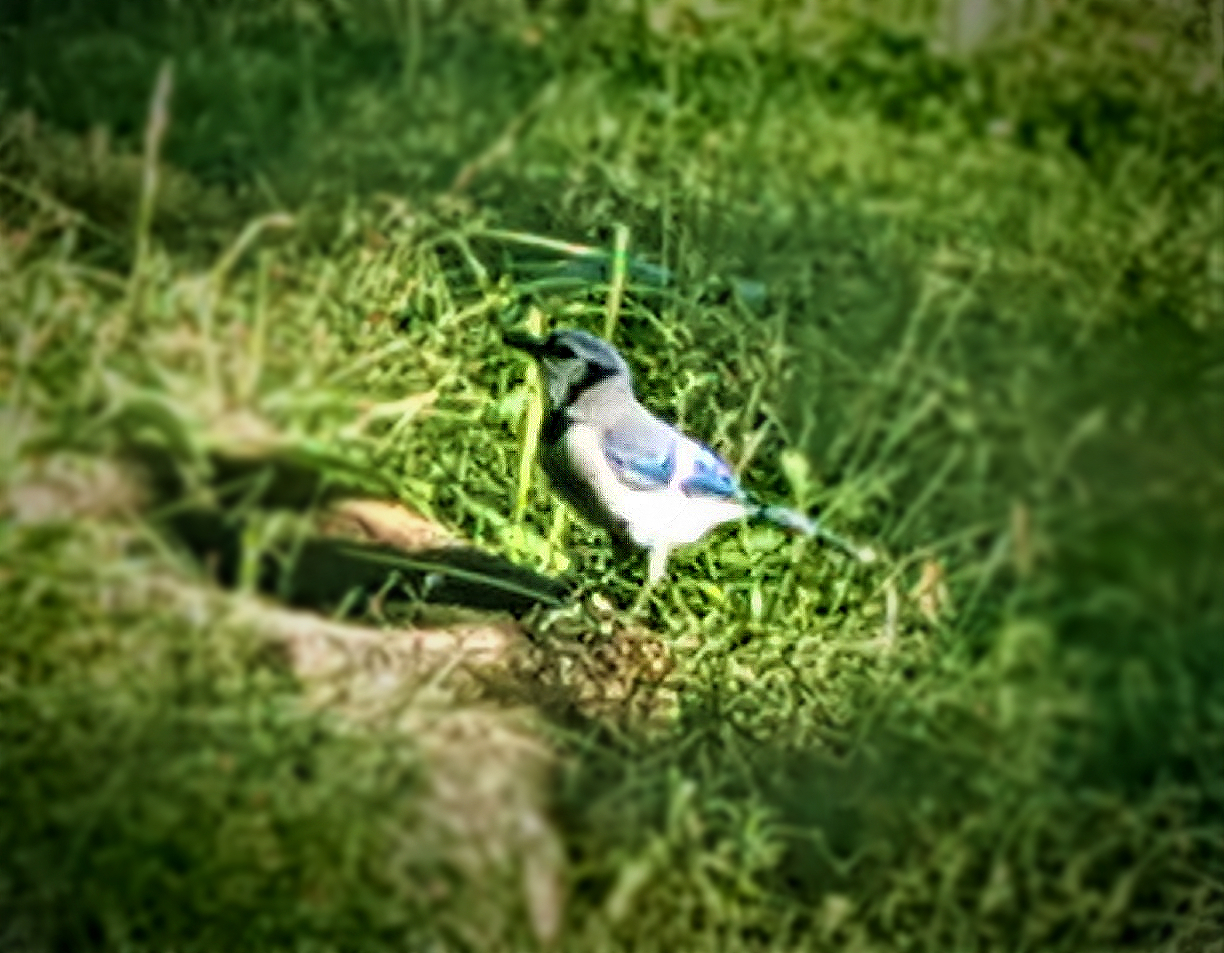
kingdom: Animalia
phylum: Chordata
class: Aves
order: Passeriformes
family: Corvidae
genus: Cyanocitta
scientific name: Cyanocitta cristata
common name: Blue jay
